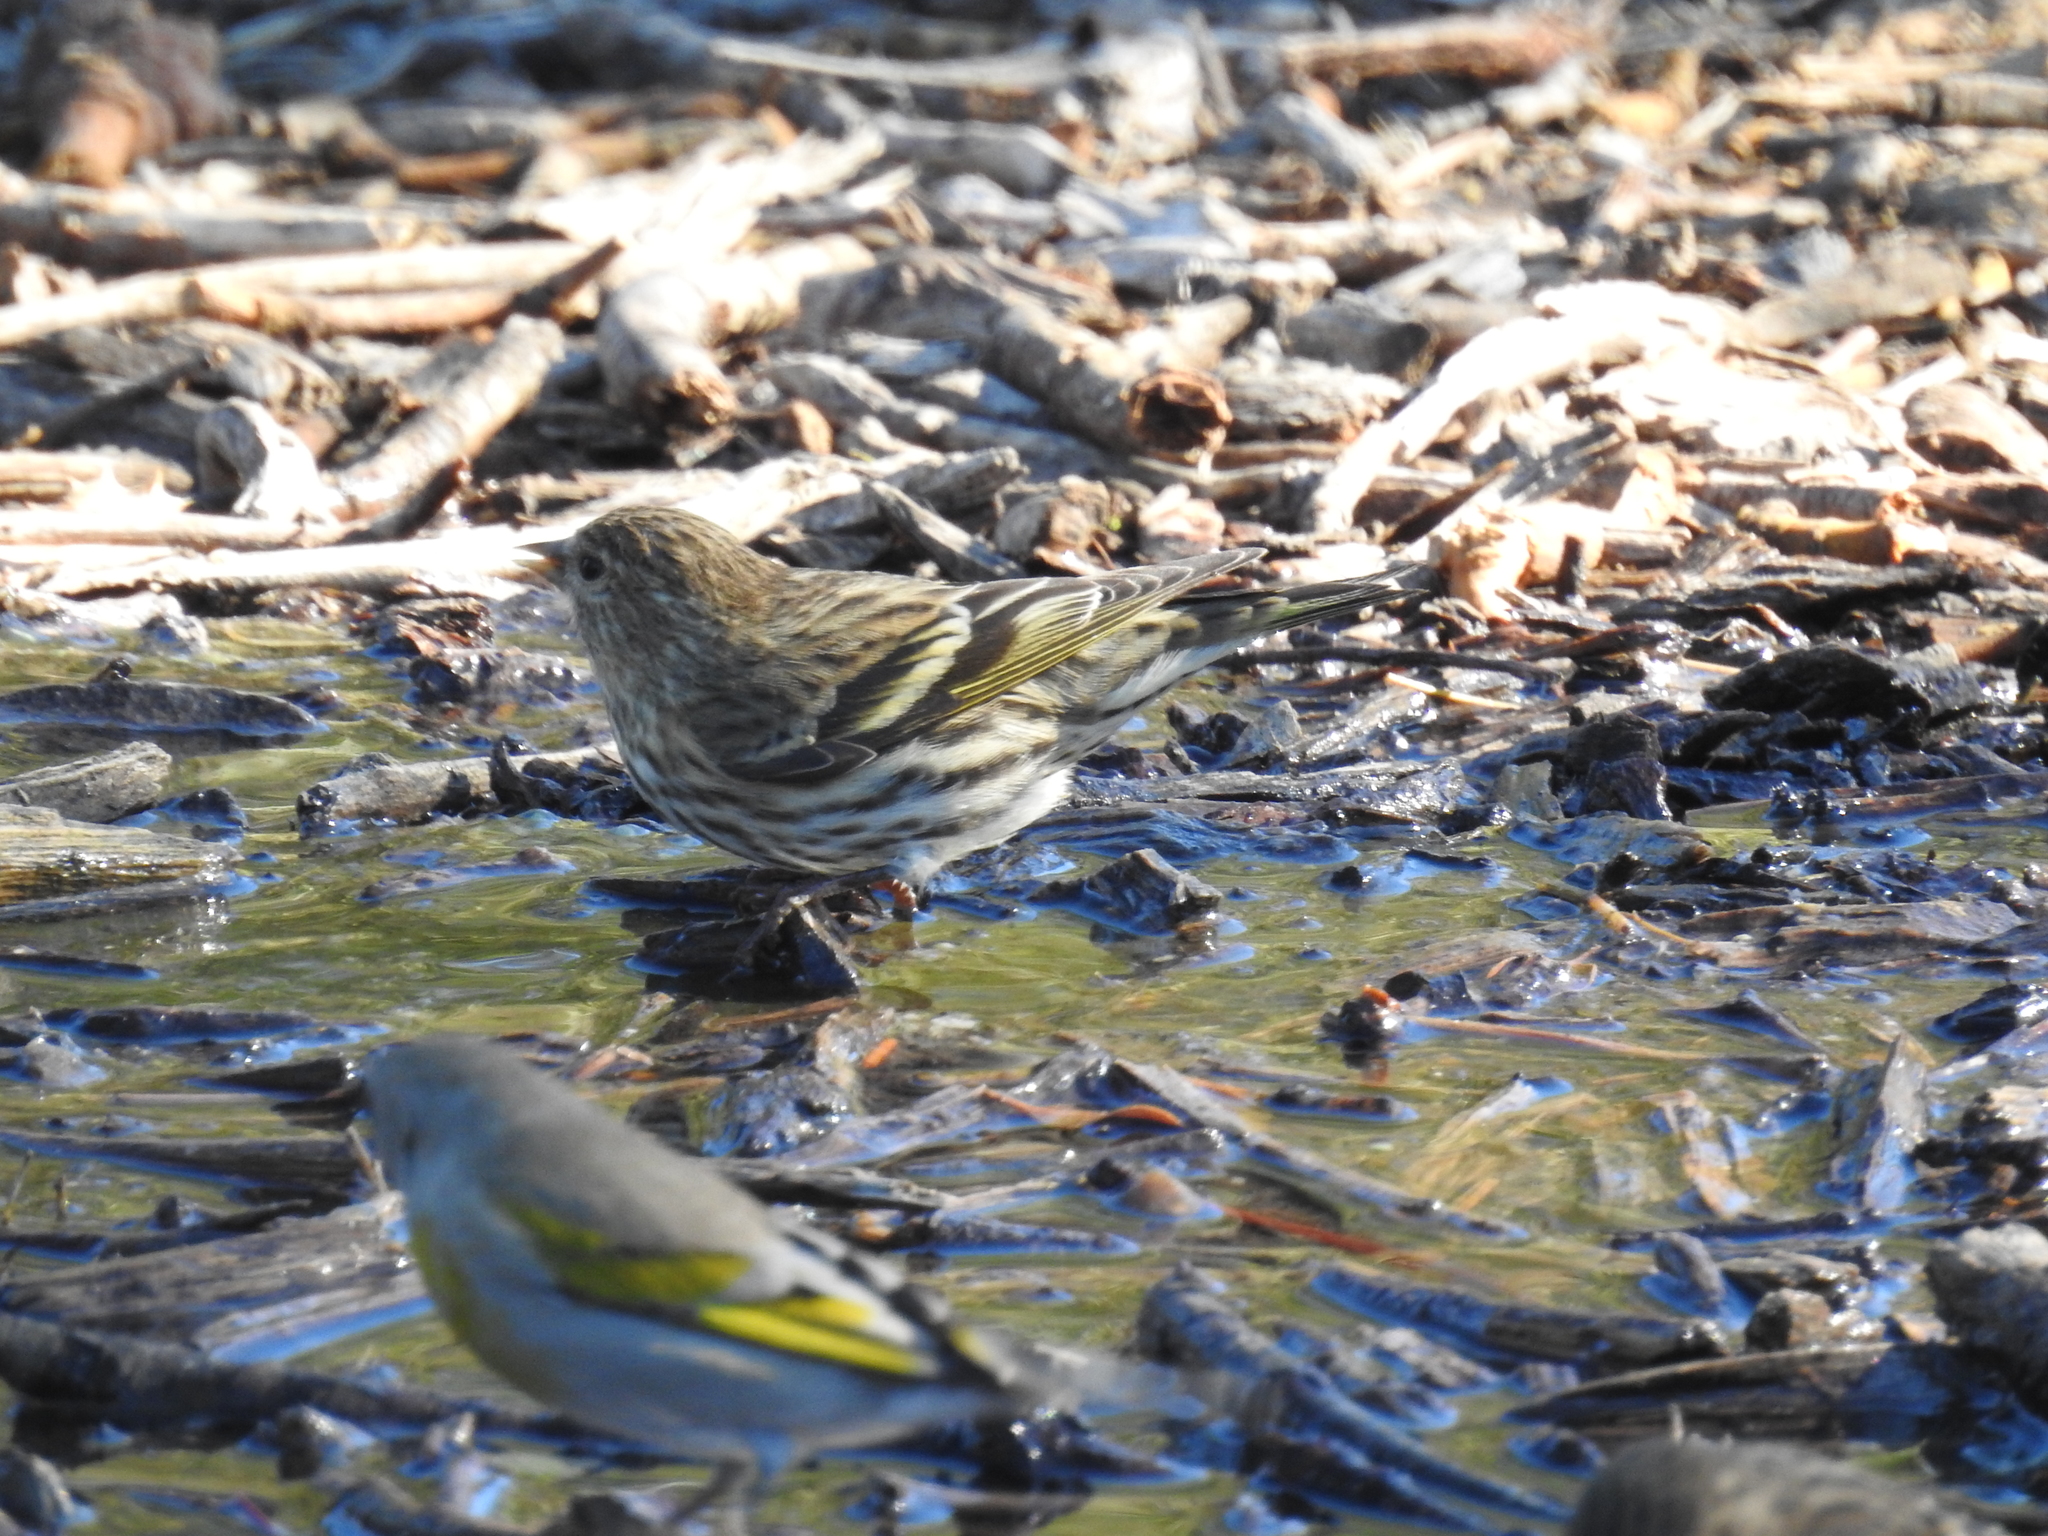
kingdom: Animalia
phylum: Chordata
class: Aves
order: Passeriformes
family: Fringillidae
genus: Spinus
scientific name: Spinus pinus
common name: Pine siskin
